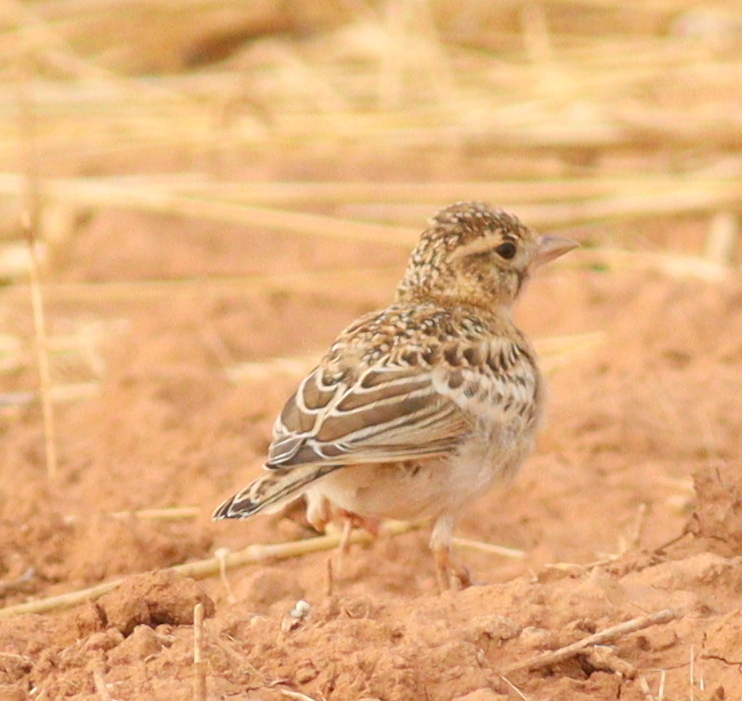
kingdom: Animalia
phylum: Chordata
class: Aves
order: Passeriformes
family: Alaudidae
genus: Calandrella
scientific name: Calandrella brachydactyla
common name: Greater short-toed lark
